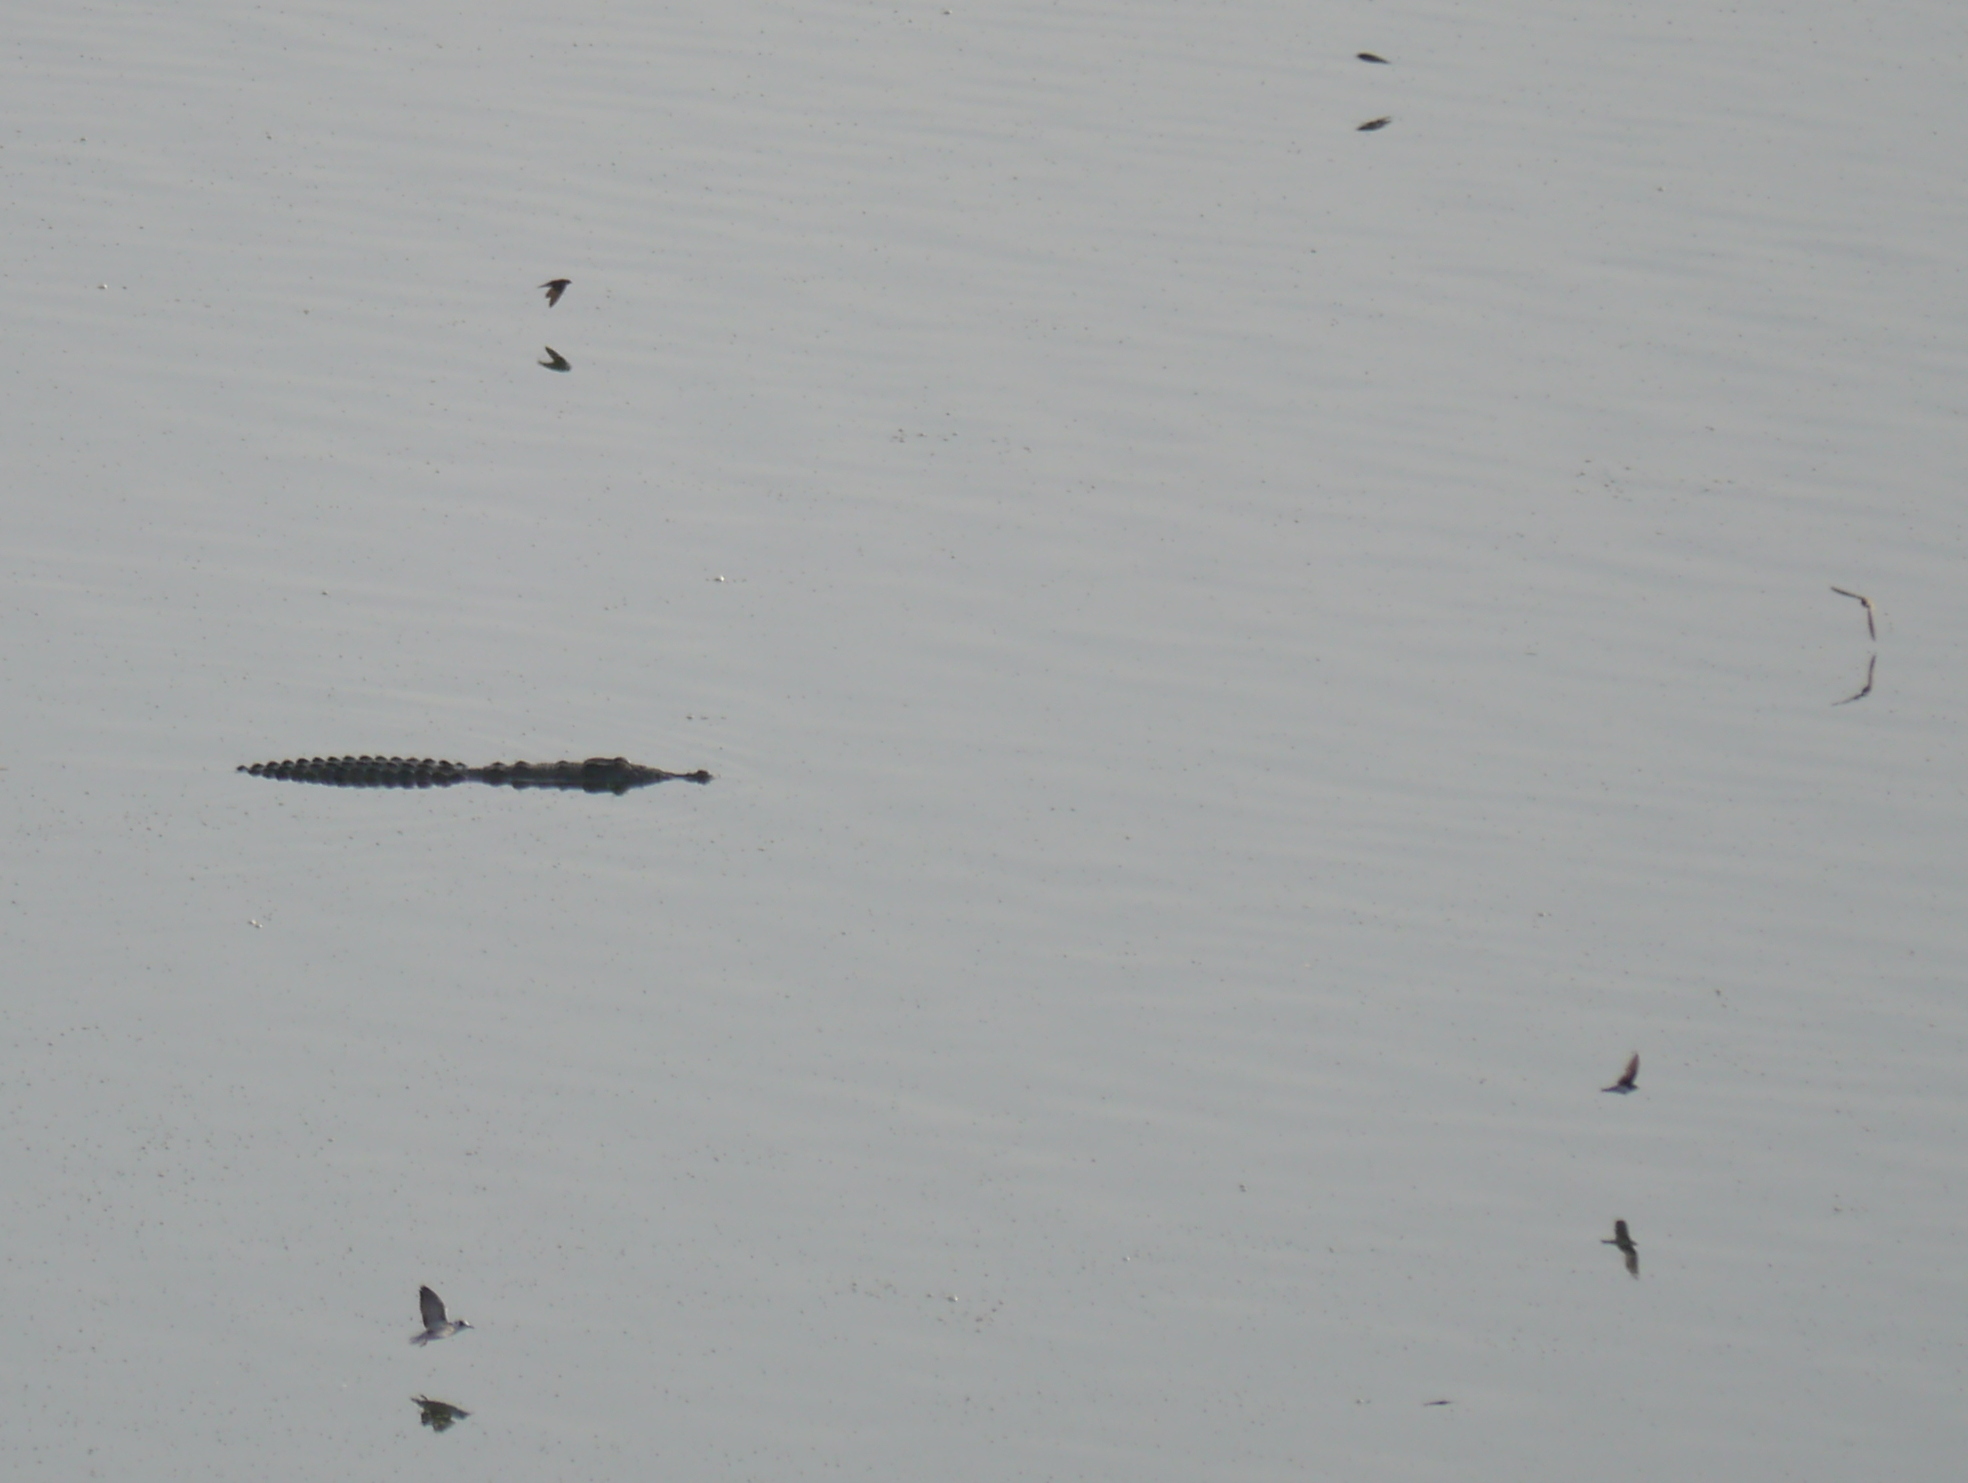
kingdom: Animalia
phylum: Chordata
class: Crocodylia
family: Crocodylidae
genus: Crocodylus
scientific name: Crocodylus niloticus
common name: Nile crocodile
